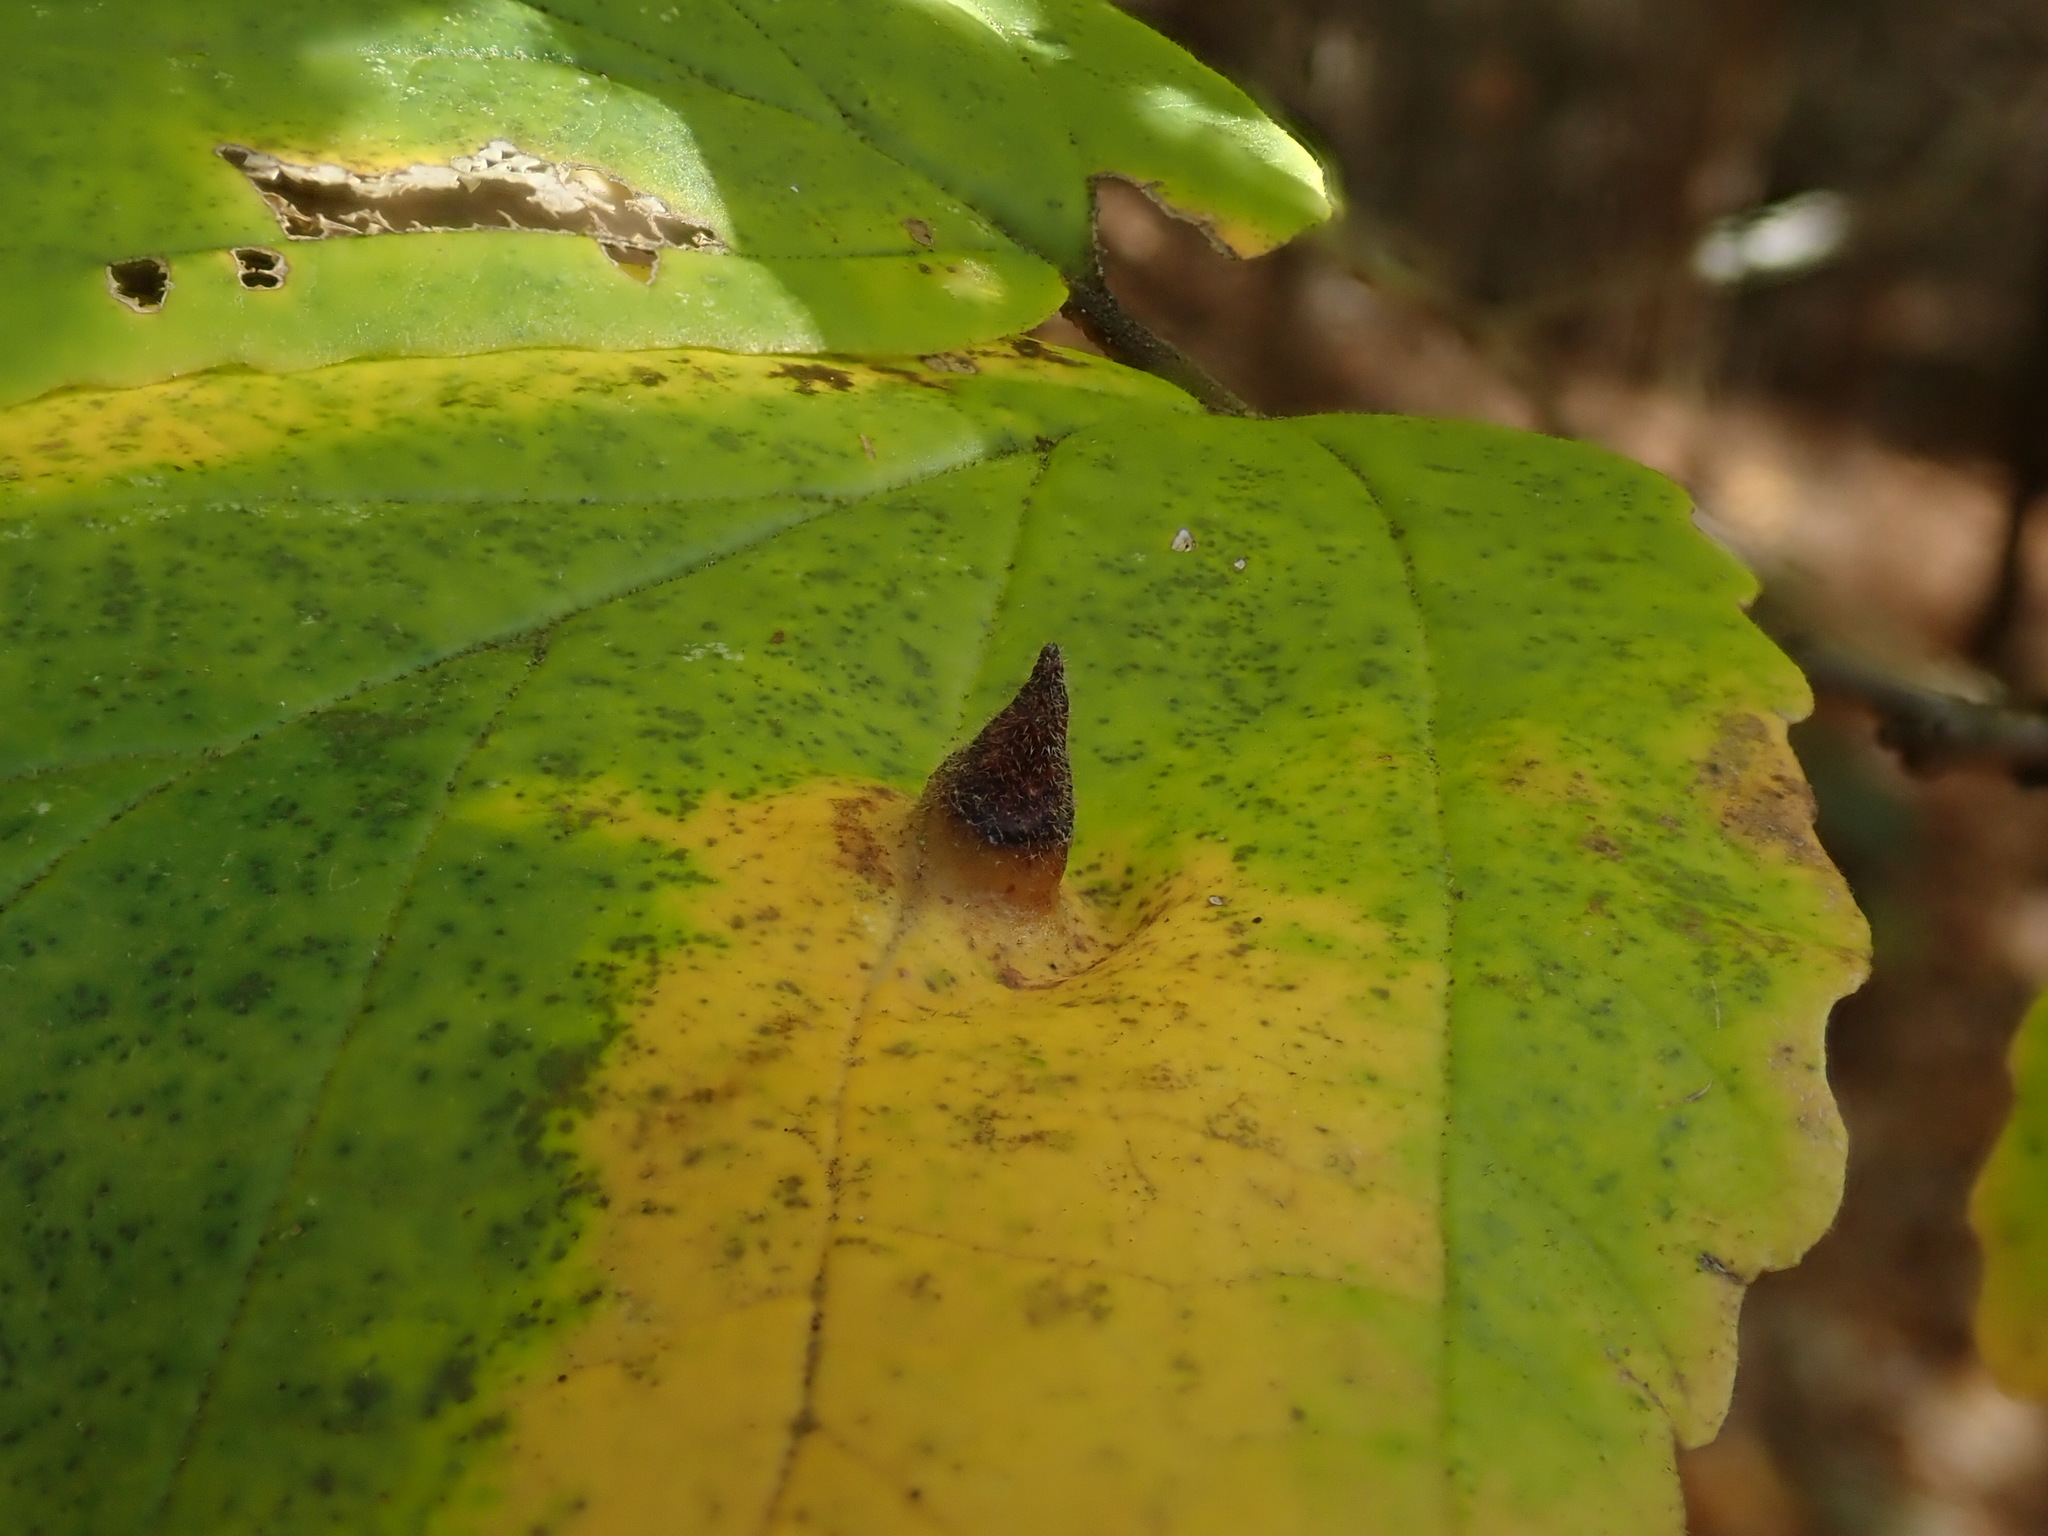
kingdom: Animalia
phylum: Arthropoda
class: Insecta
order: Hemiptera
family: Aphididae
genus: Hormaphis
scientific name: Hormaphis hamamelidis
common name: Witch-hazel cone gall aphid
